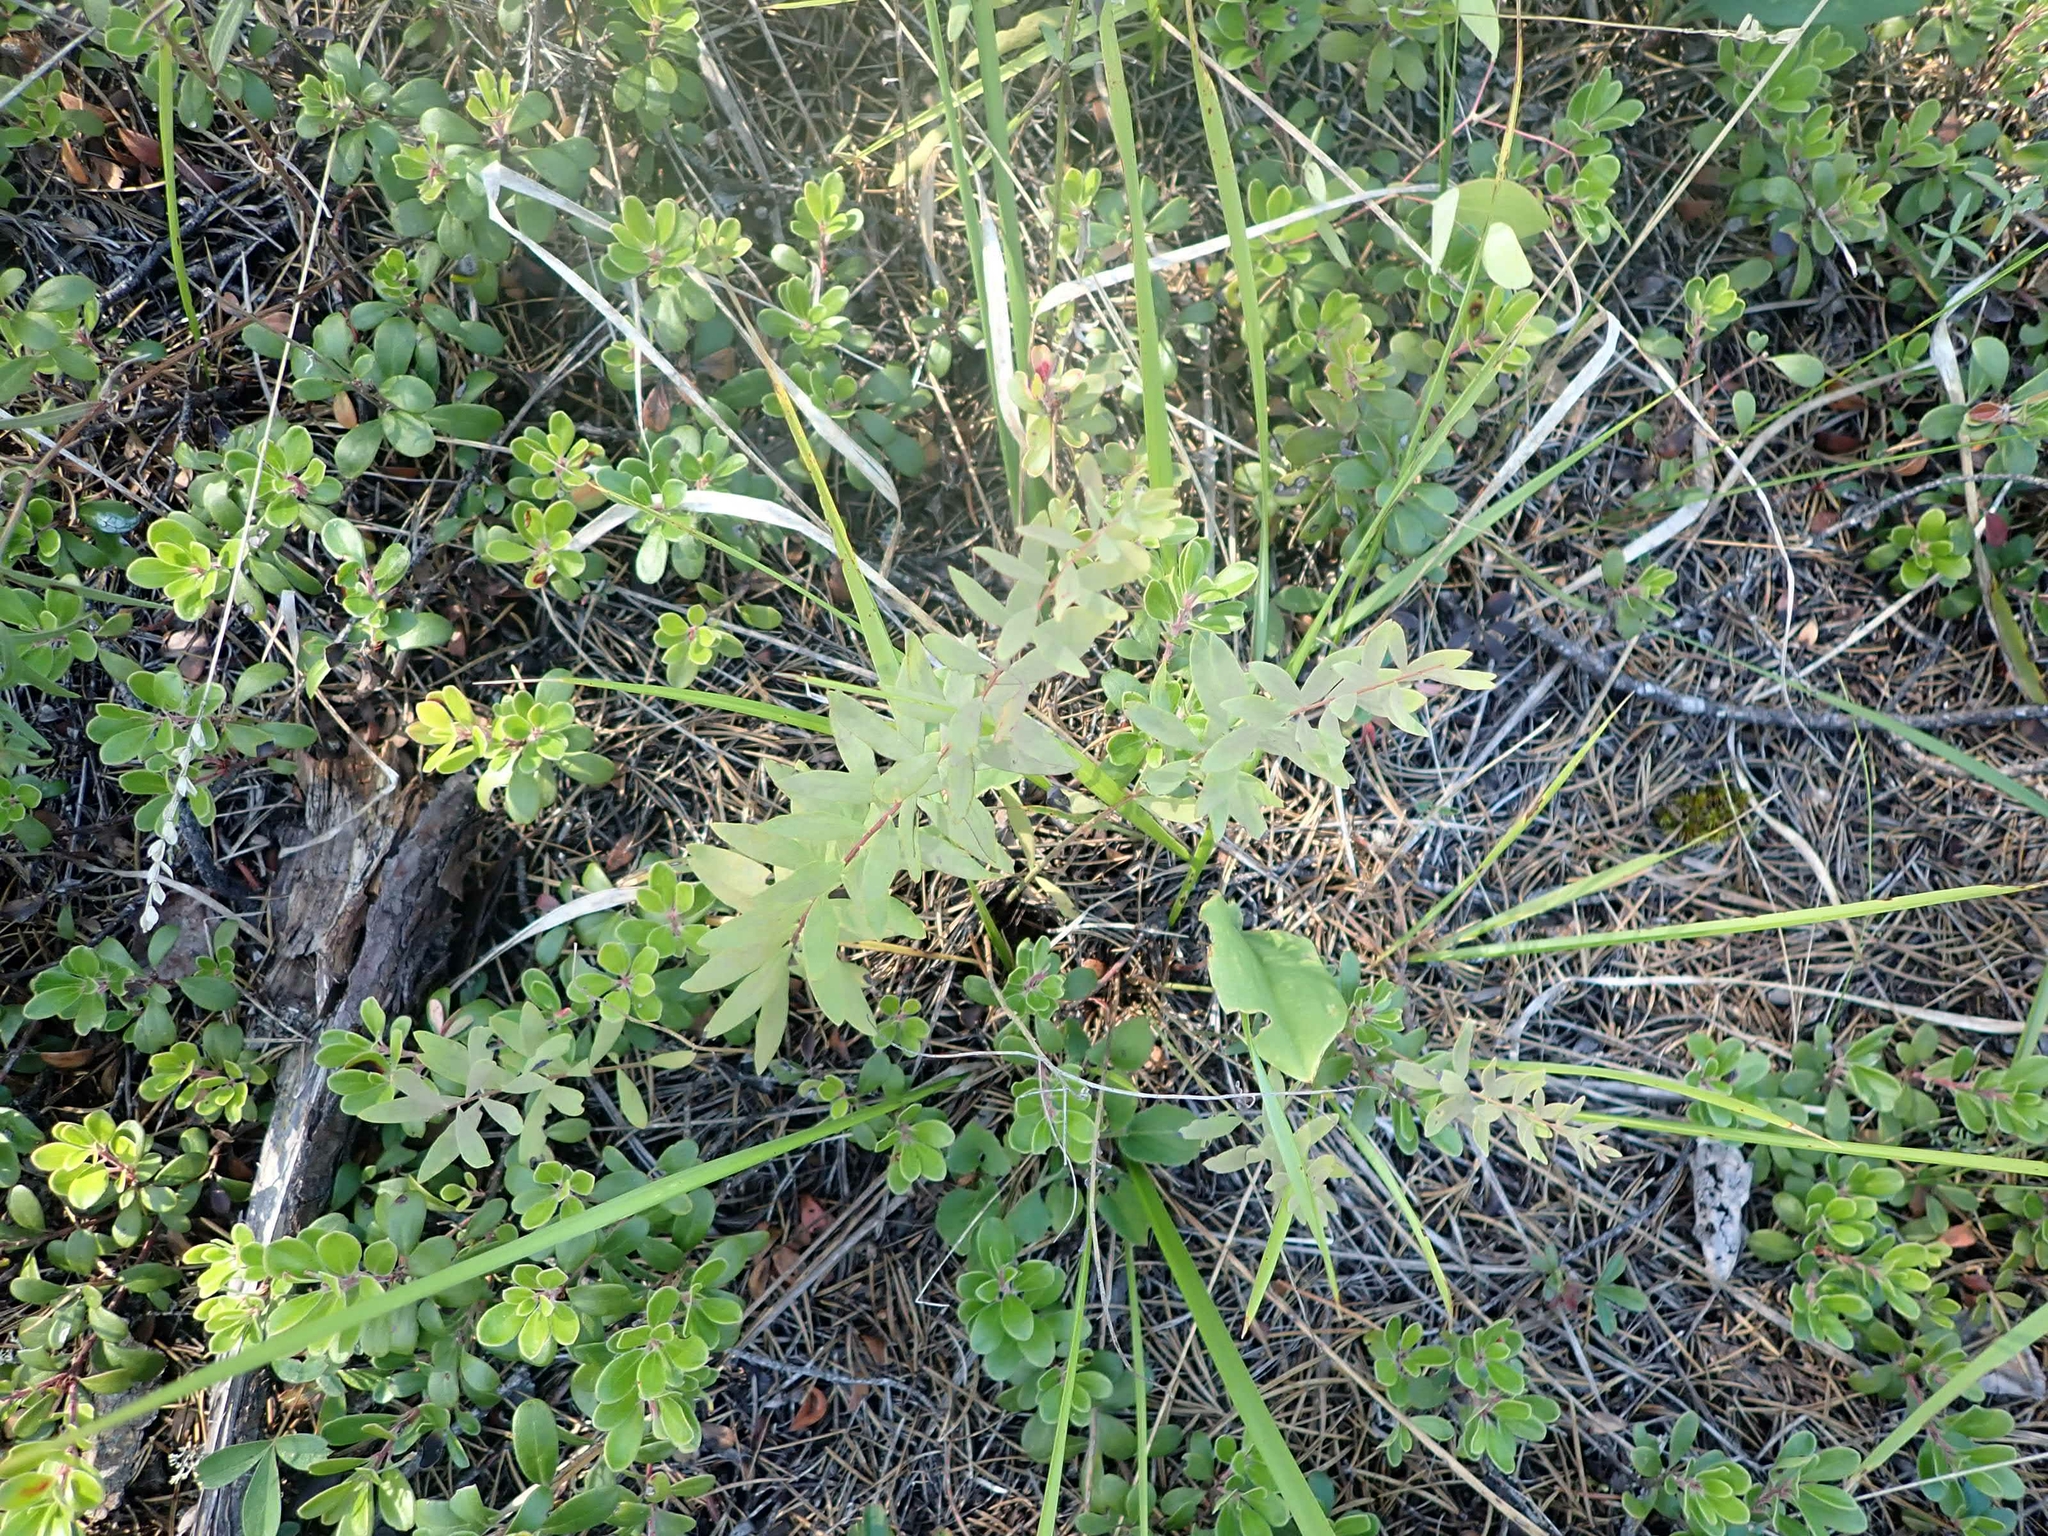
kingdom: Plantae
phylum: Tracheophyta
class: Magnoliopsida
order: Santalales
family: Comandraceae
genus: Comandra
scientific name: Comandra umbellata
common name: Bastard toadflax
